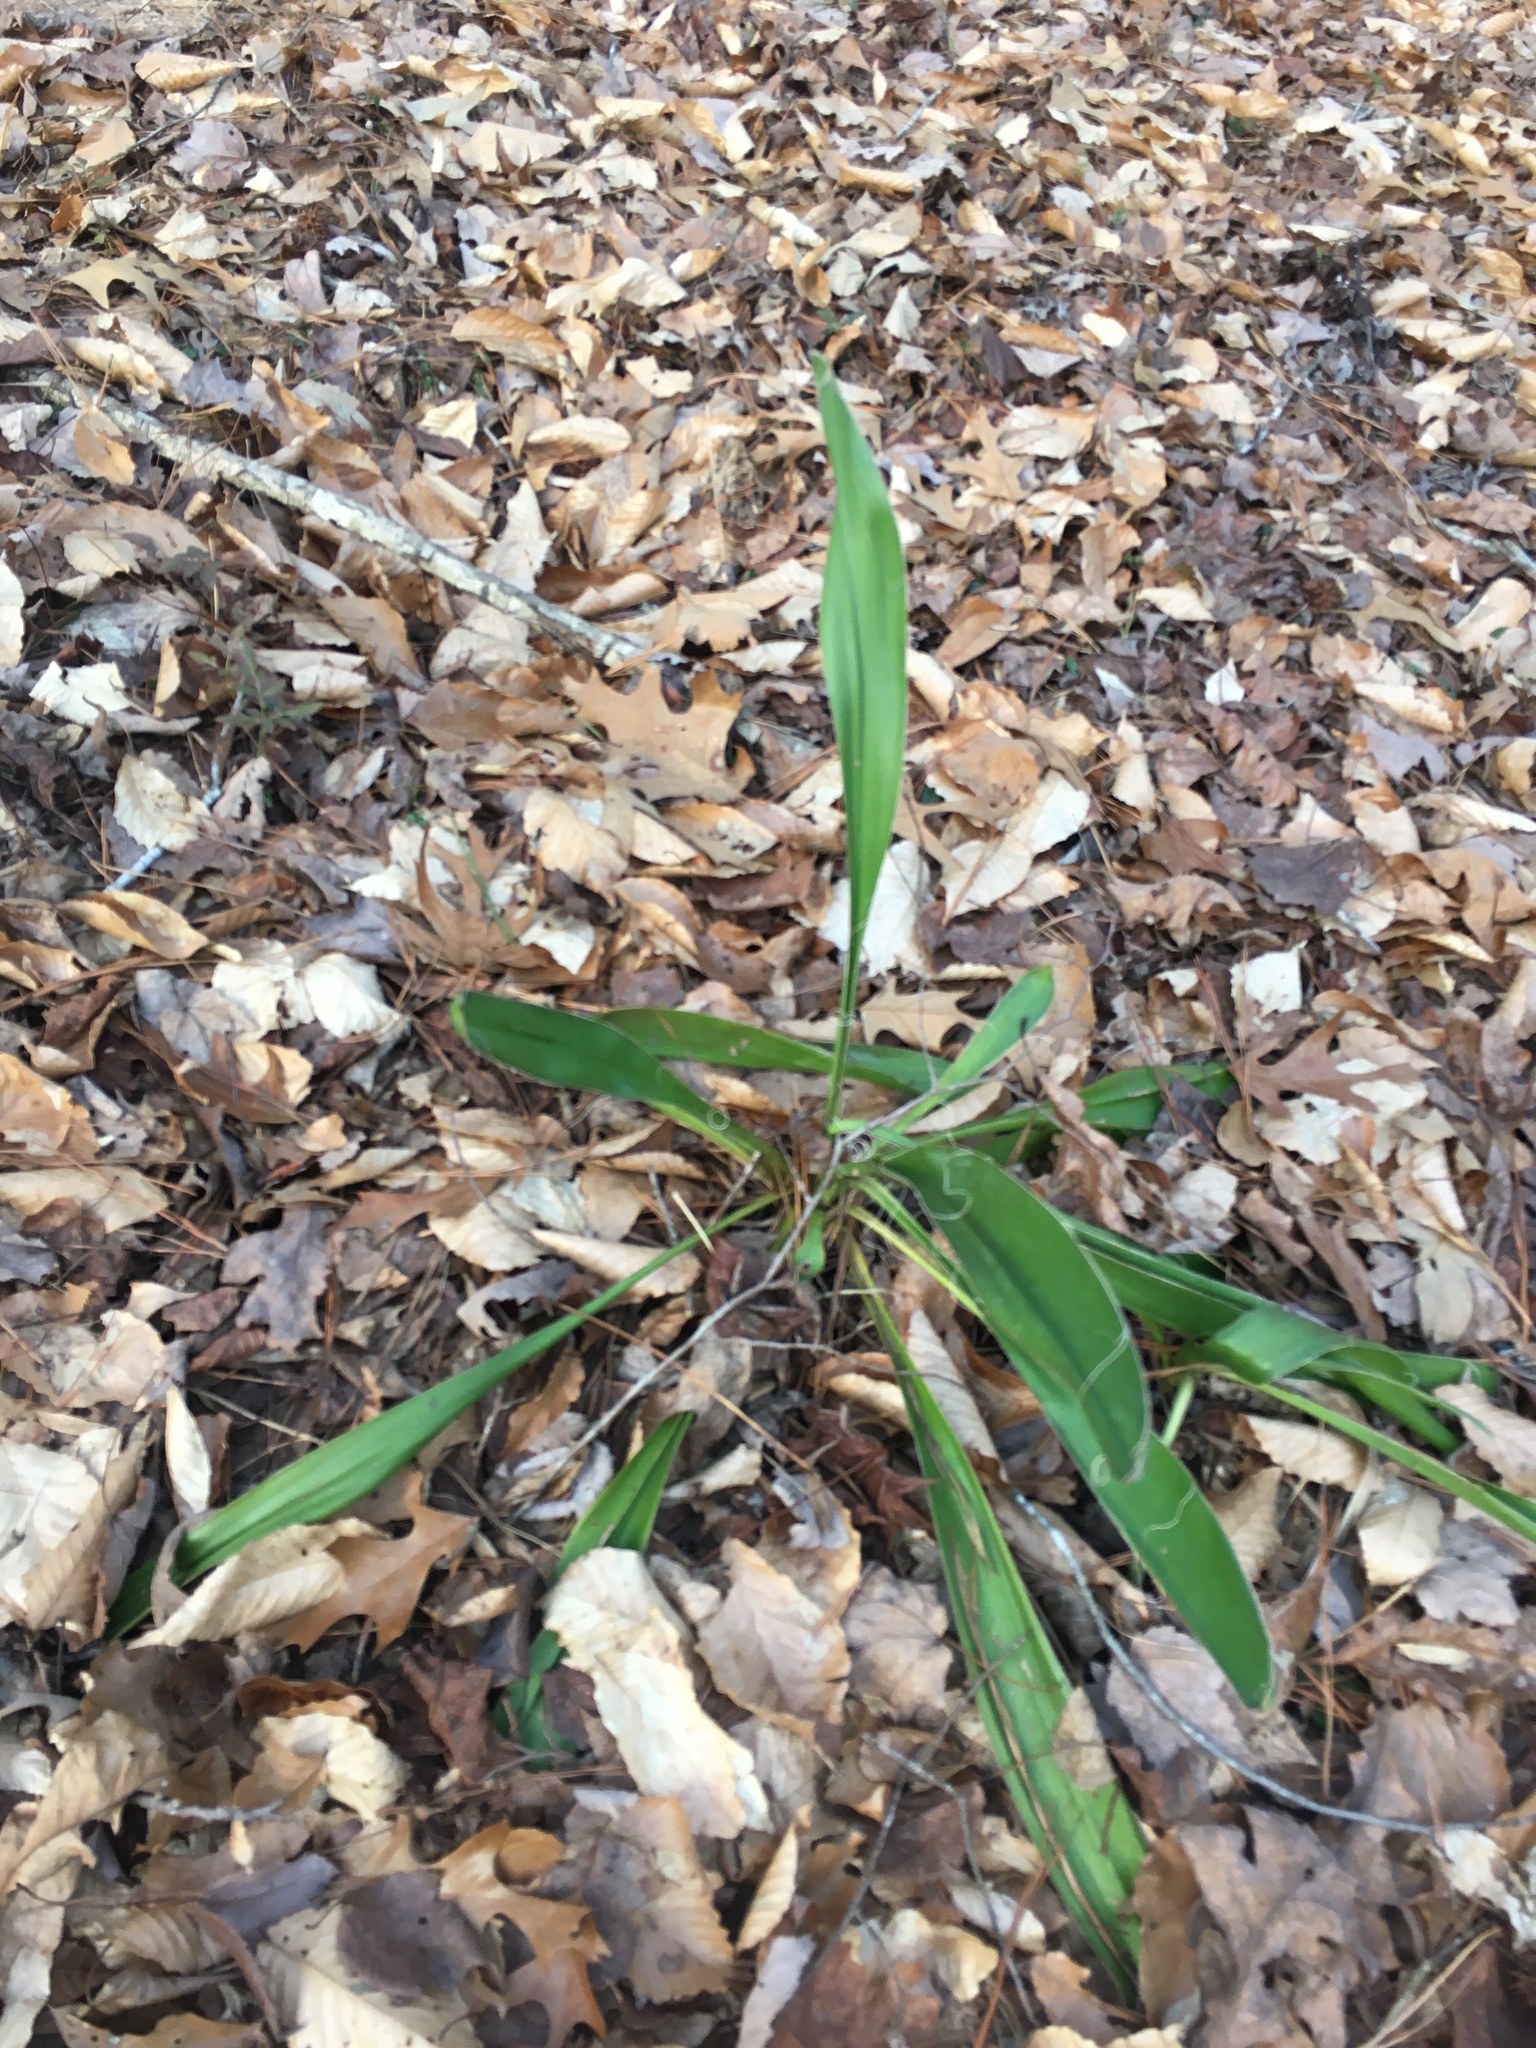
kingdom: Plantae
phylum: Tracheophyta
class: Liliopsida
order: Asparagales
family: Asparagaceae
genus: Yucca
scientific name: Yucca filamentosa
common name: Adam's-needle
